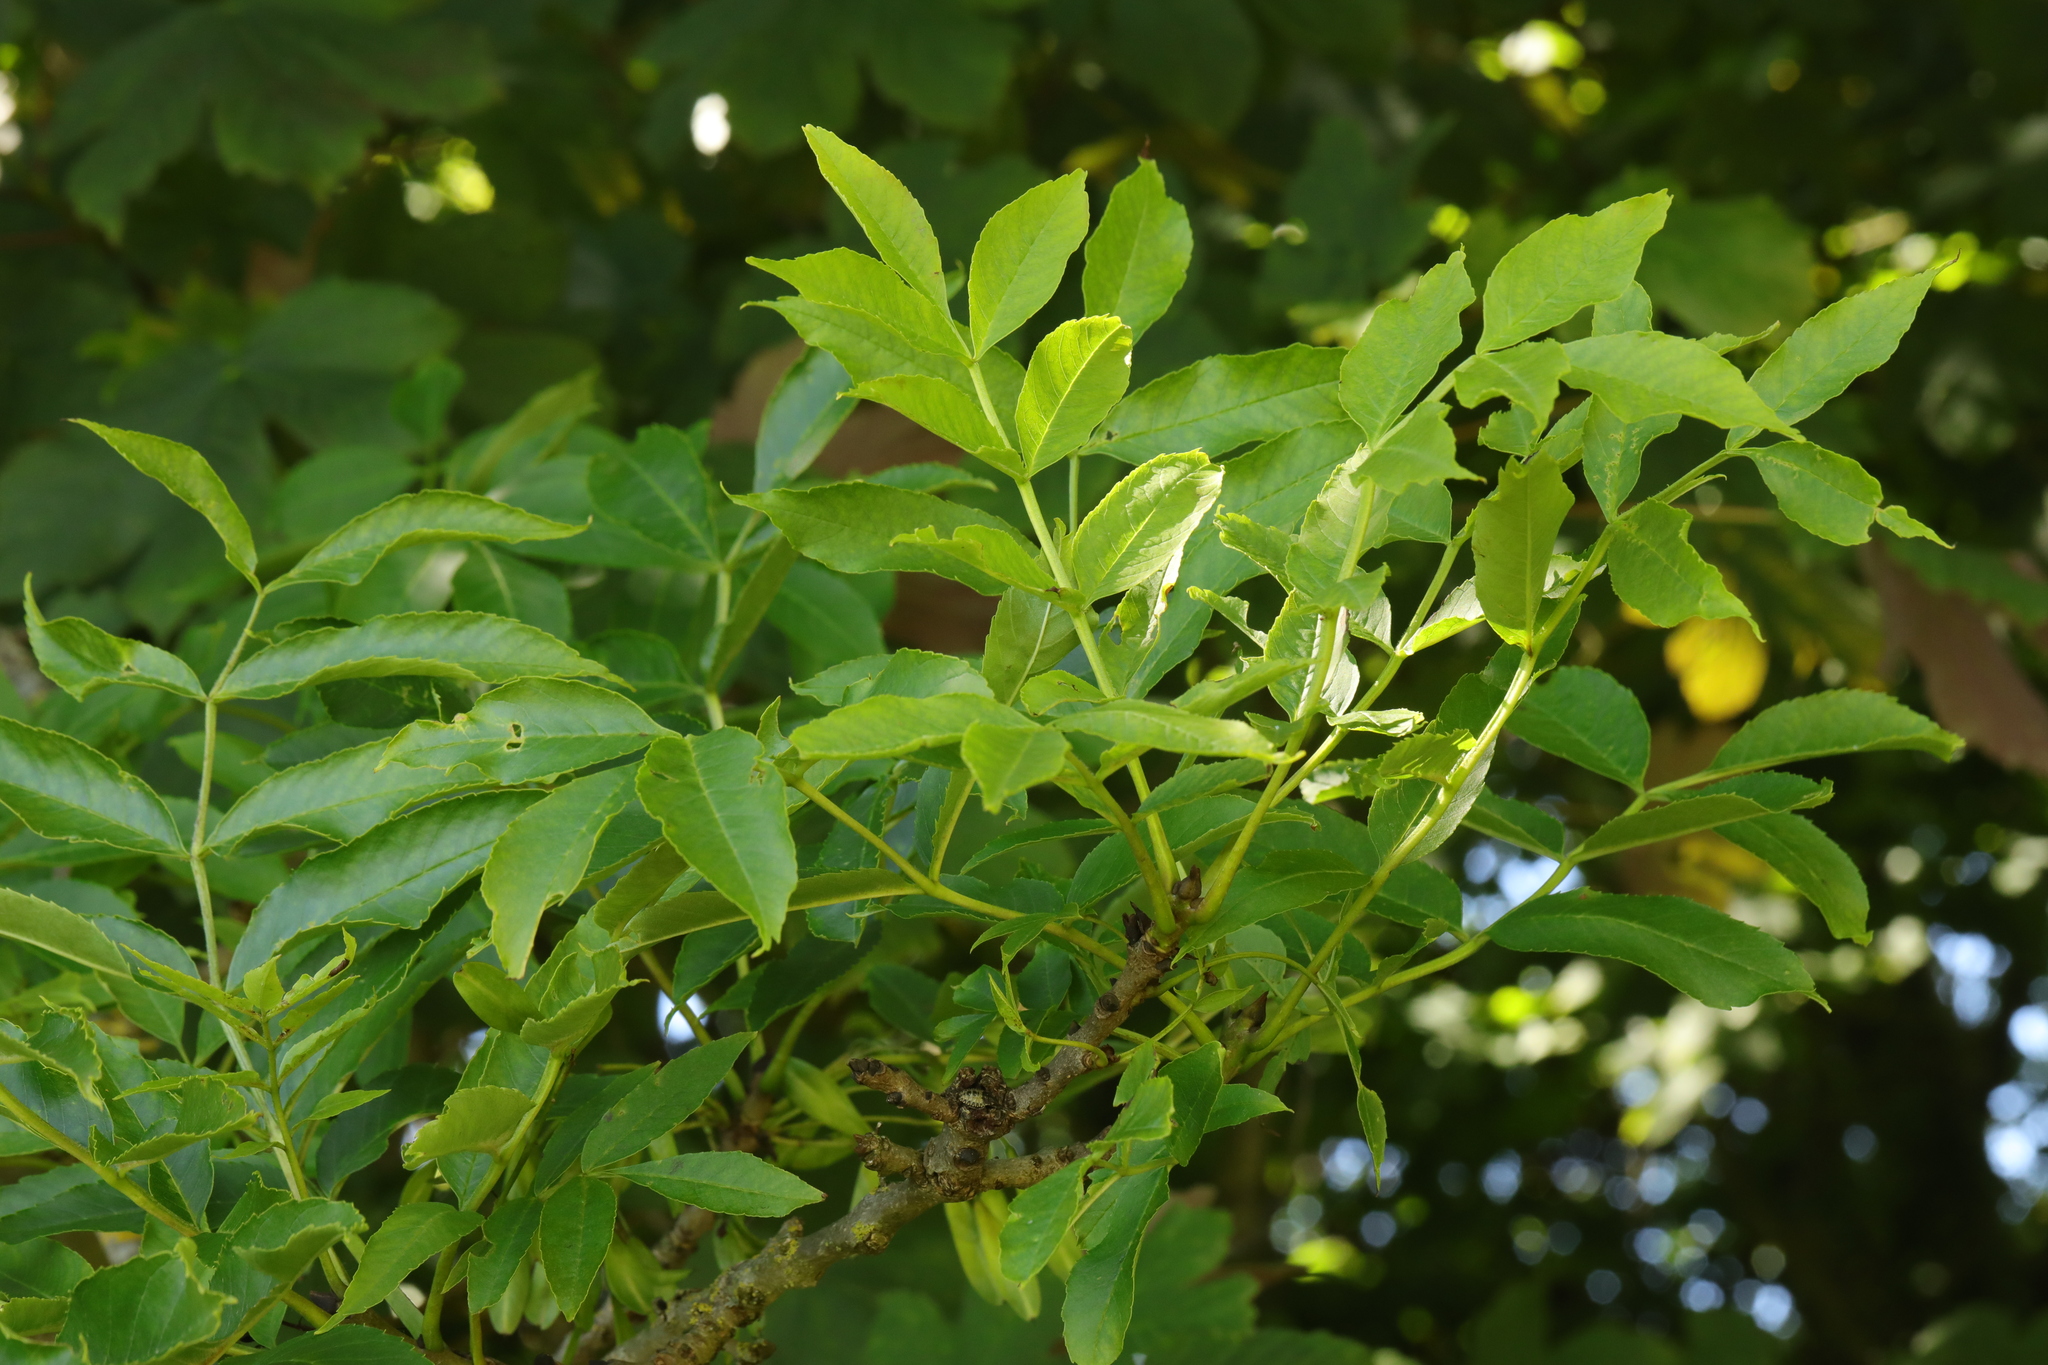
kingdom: Plantae
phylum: Tracheophyta
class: Magnoliopsida
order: Lamiales
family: Oleaceae
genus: Fraxinus
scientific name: Fraxinus excelsior
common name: European ash
